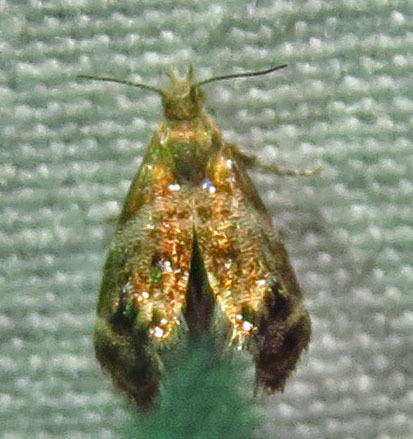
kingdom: Animalia
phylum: Arthropoda
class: Insecta
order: Lepidoptera
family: Choreutidae
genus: Tebenna
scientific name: Tebenna gnaphaliella
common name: Everlasting tebenna moth
